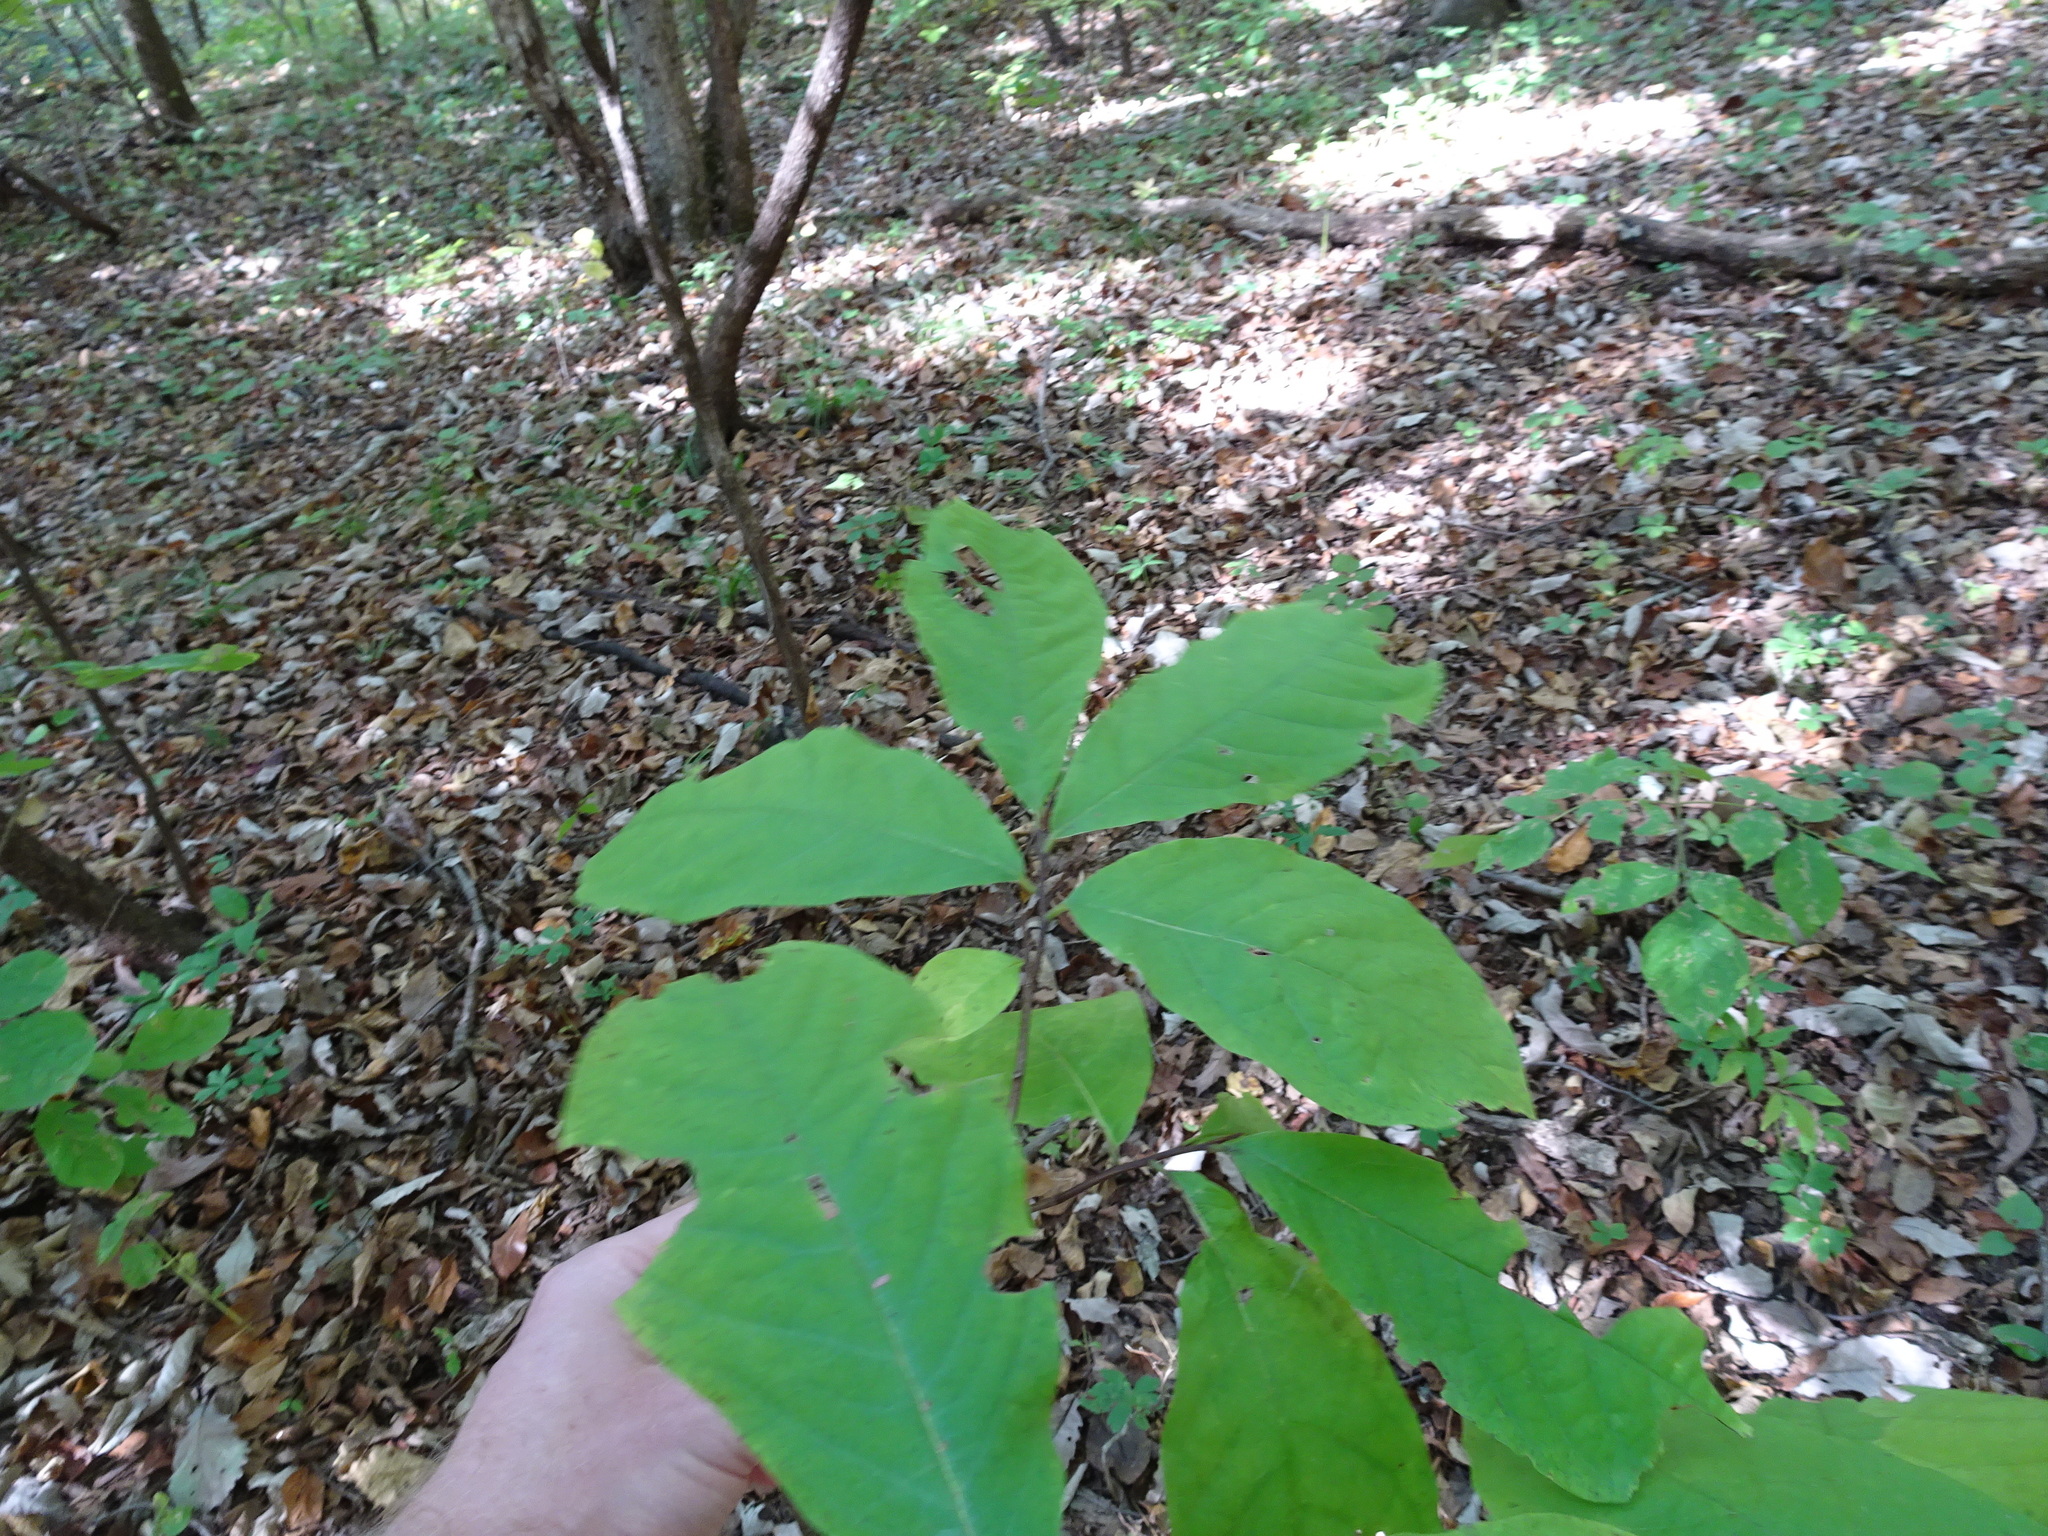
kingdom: Plantae
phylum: Tracheophyta
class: Magnoliopsida
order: Magnoliales
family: Annonaceae
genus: Asimina
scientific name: Asimina triloba
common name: Dog-banana
